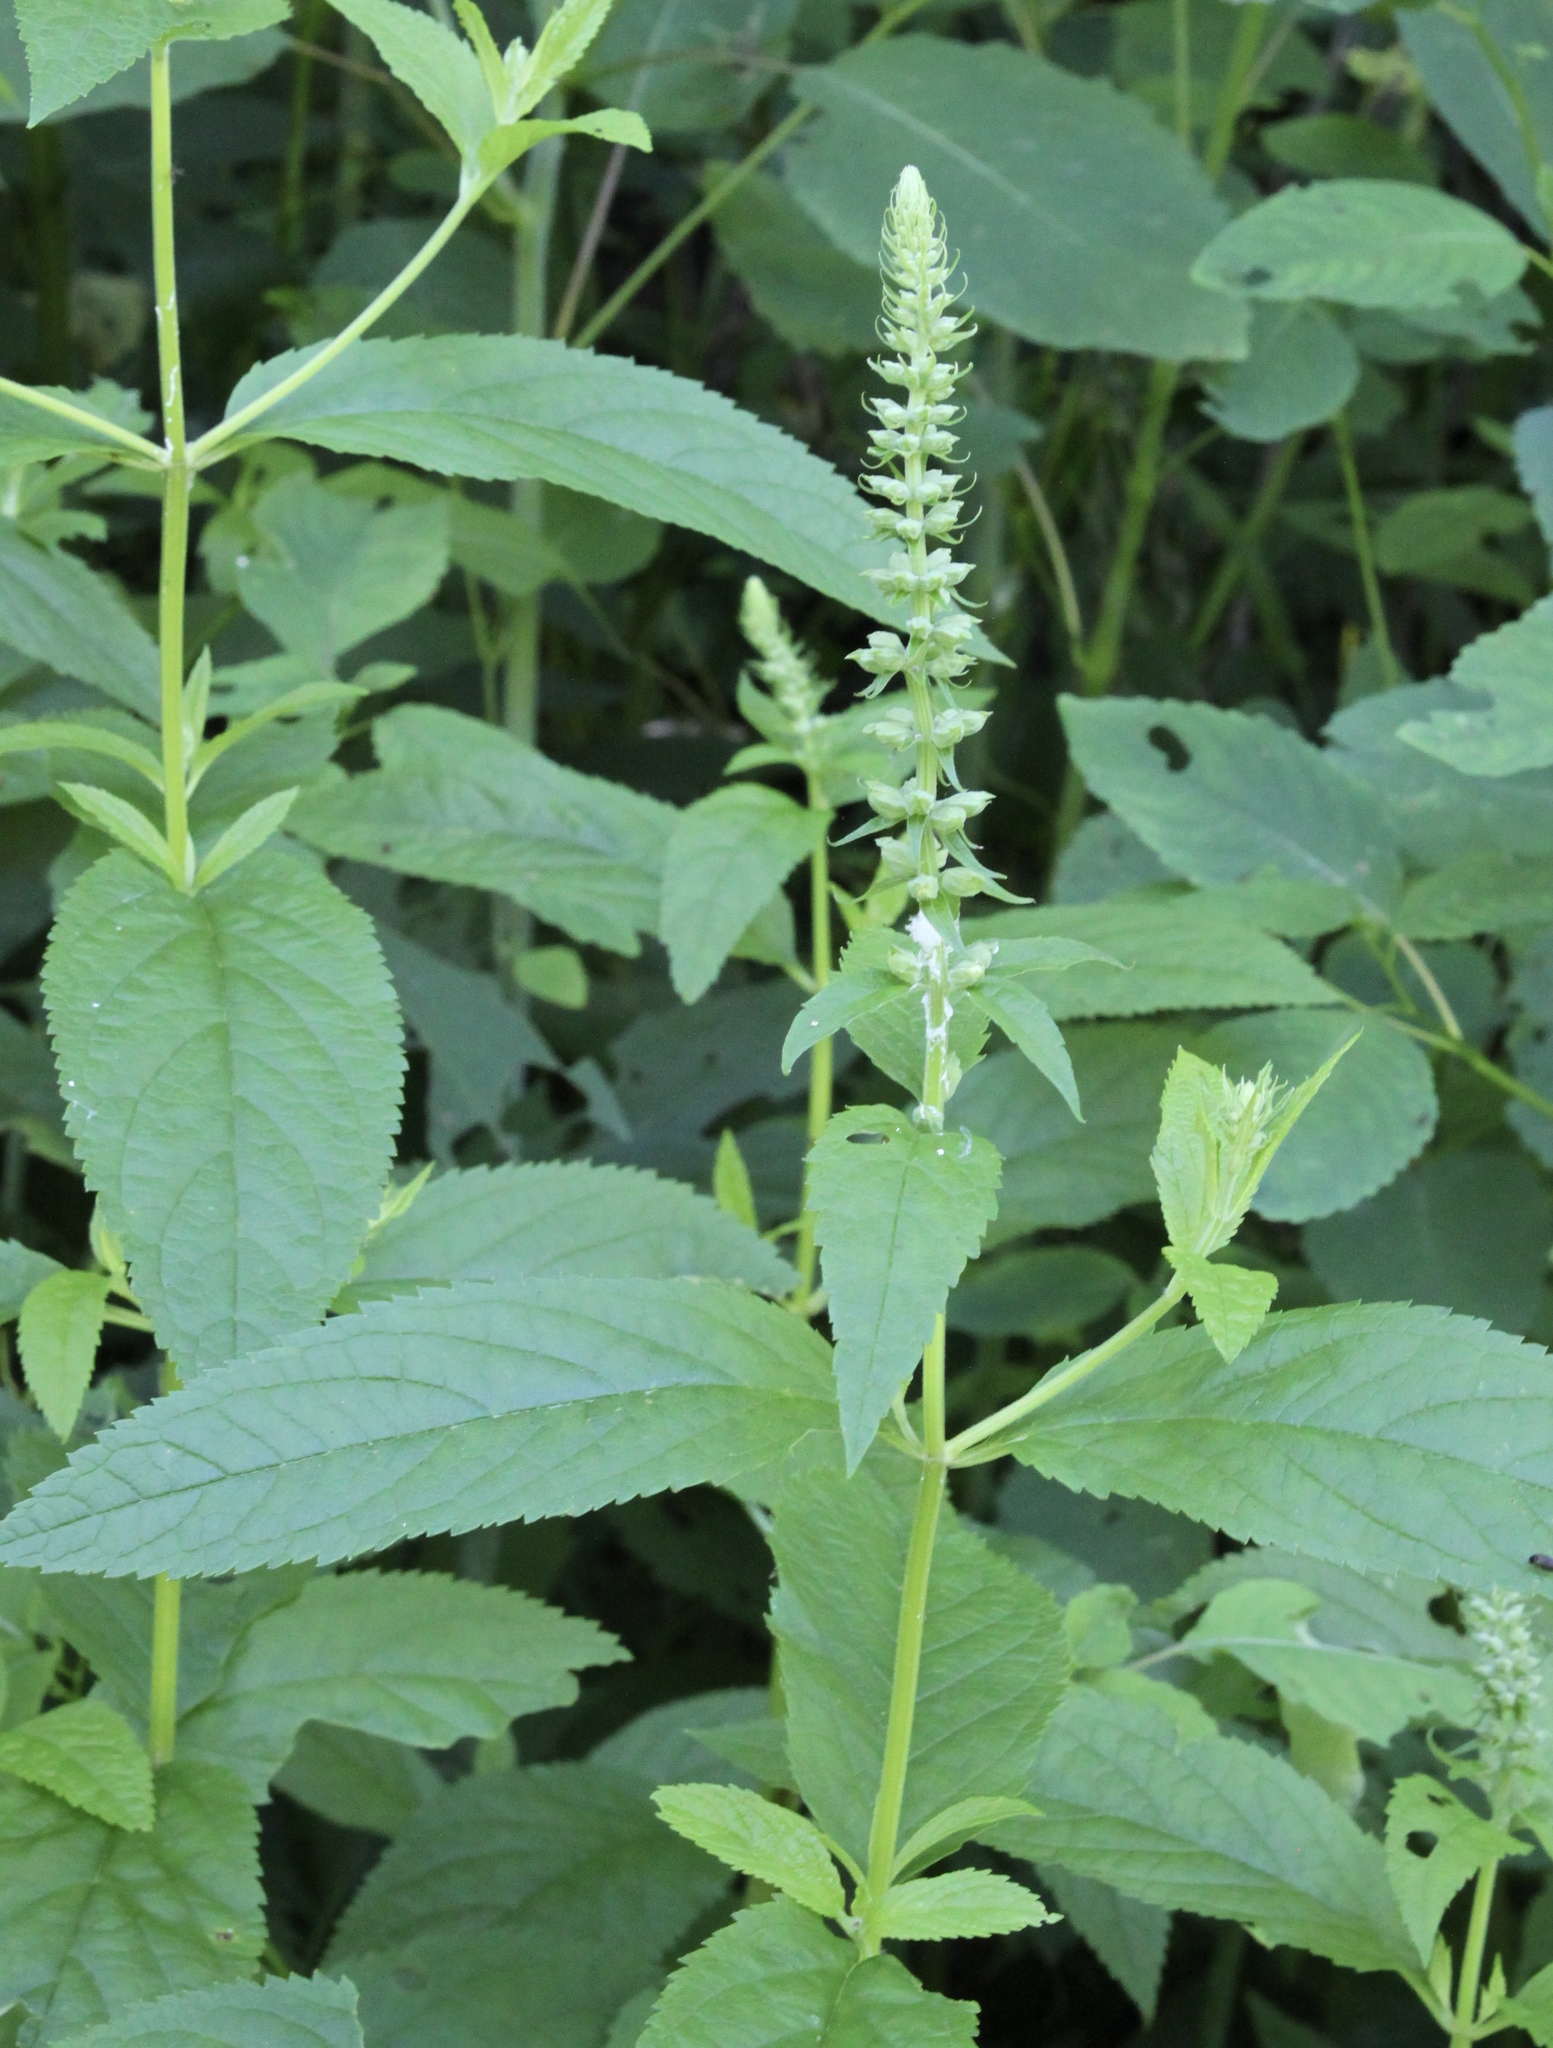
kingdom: Plantae
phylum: Tracheophyta
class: Magnoliopsida
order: Lamiales
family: Lamiaceae
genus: Teucrium
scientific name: Teucrium canadense
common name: American germander
